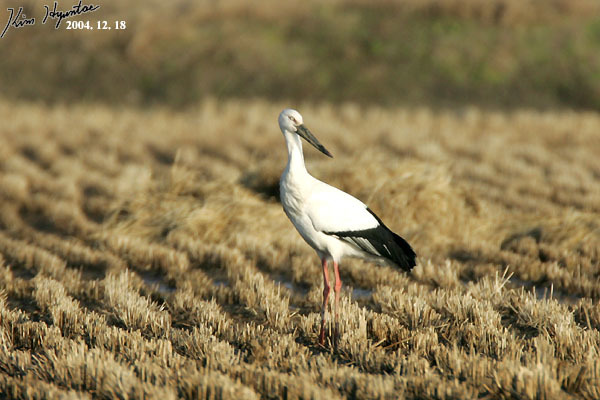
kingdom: Animalia
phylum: Chordata
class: Aves
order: Ciconiiformes
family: Ciconiidae
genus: Ciconia
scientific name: Ciconia boyciana
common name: Oriental stork
